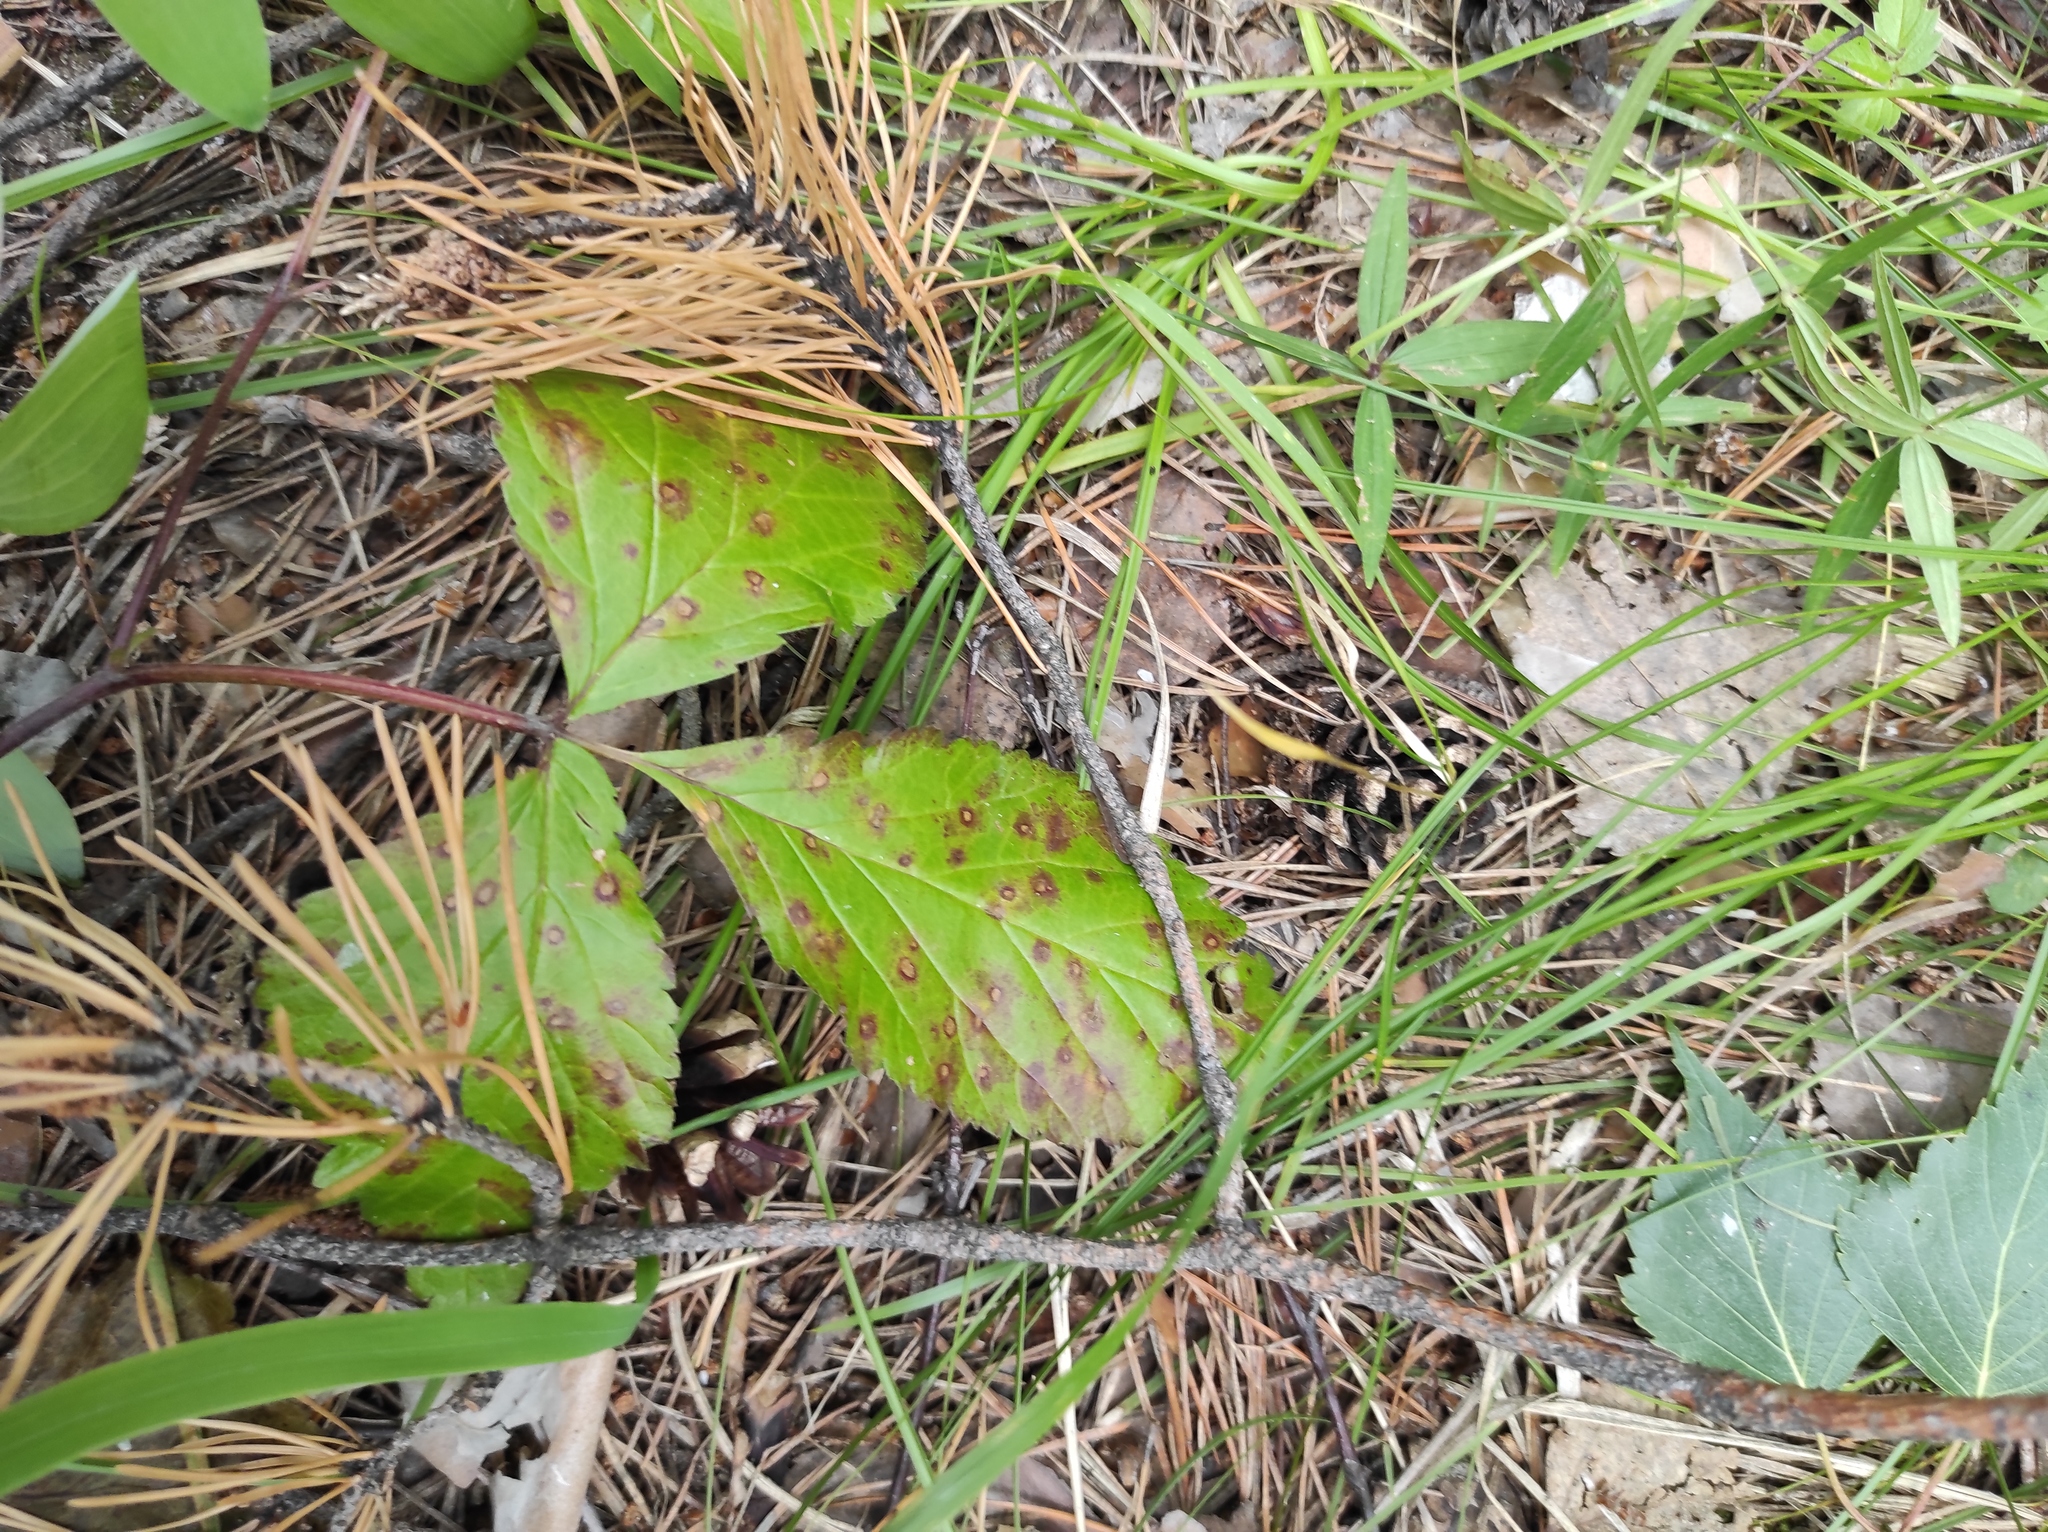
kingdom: Plantae
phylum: Tracheophyta
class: Magnoliopsida
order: Rosales
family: Rosaceae
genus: Rubus
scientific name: Rubus saxatilis
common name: Stone bramble
